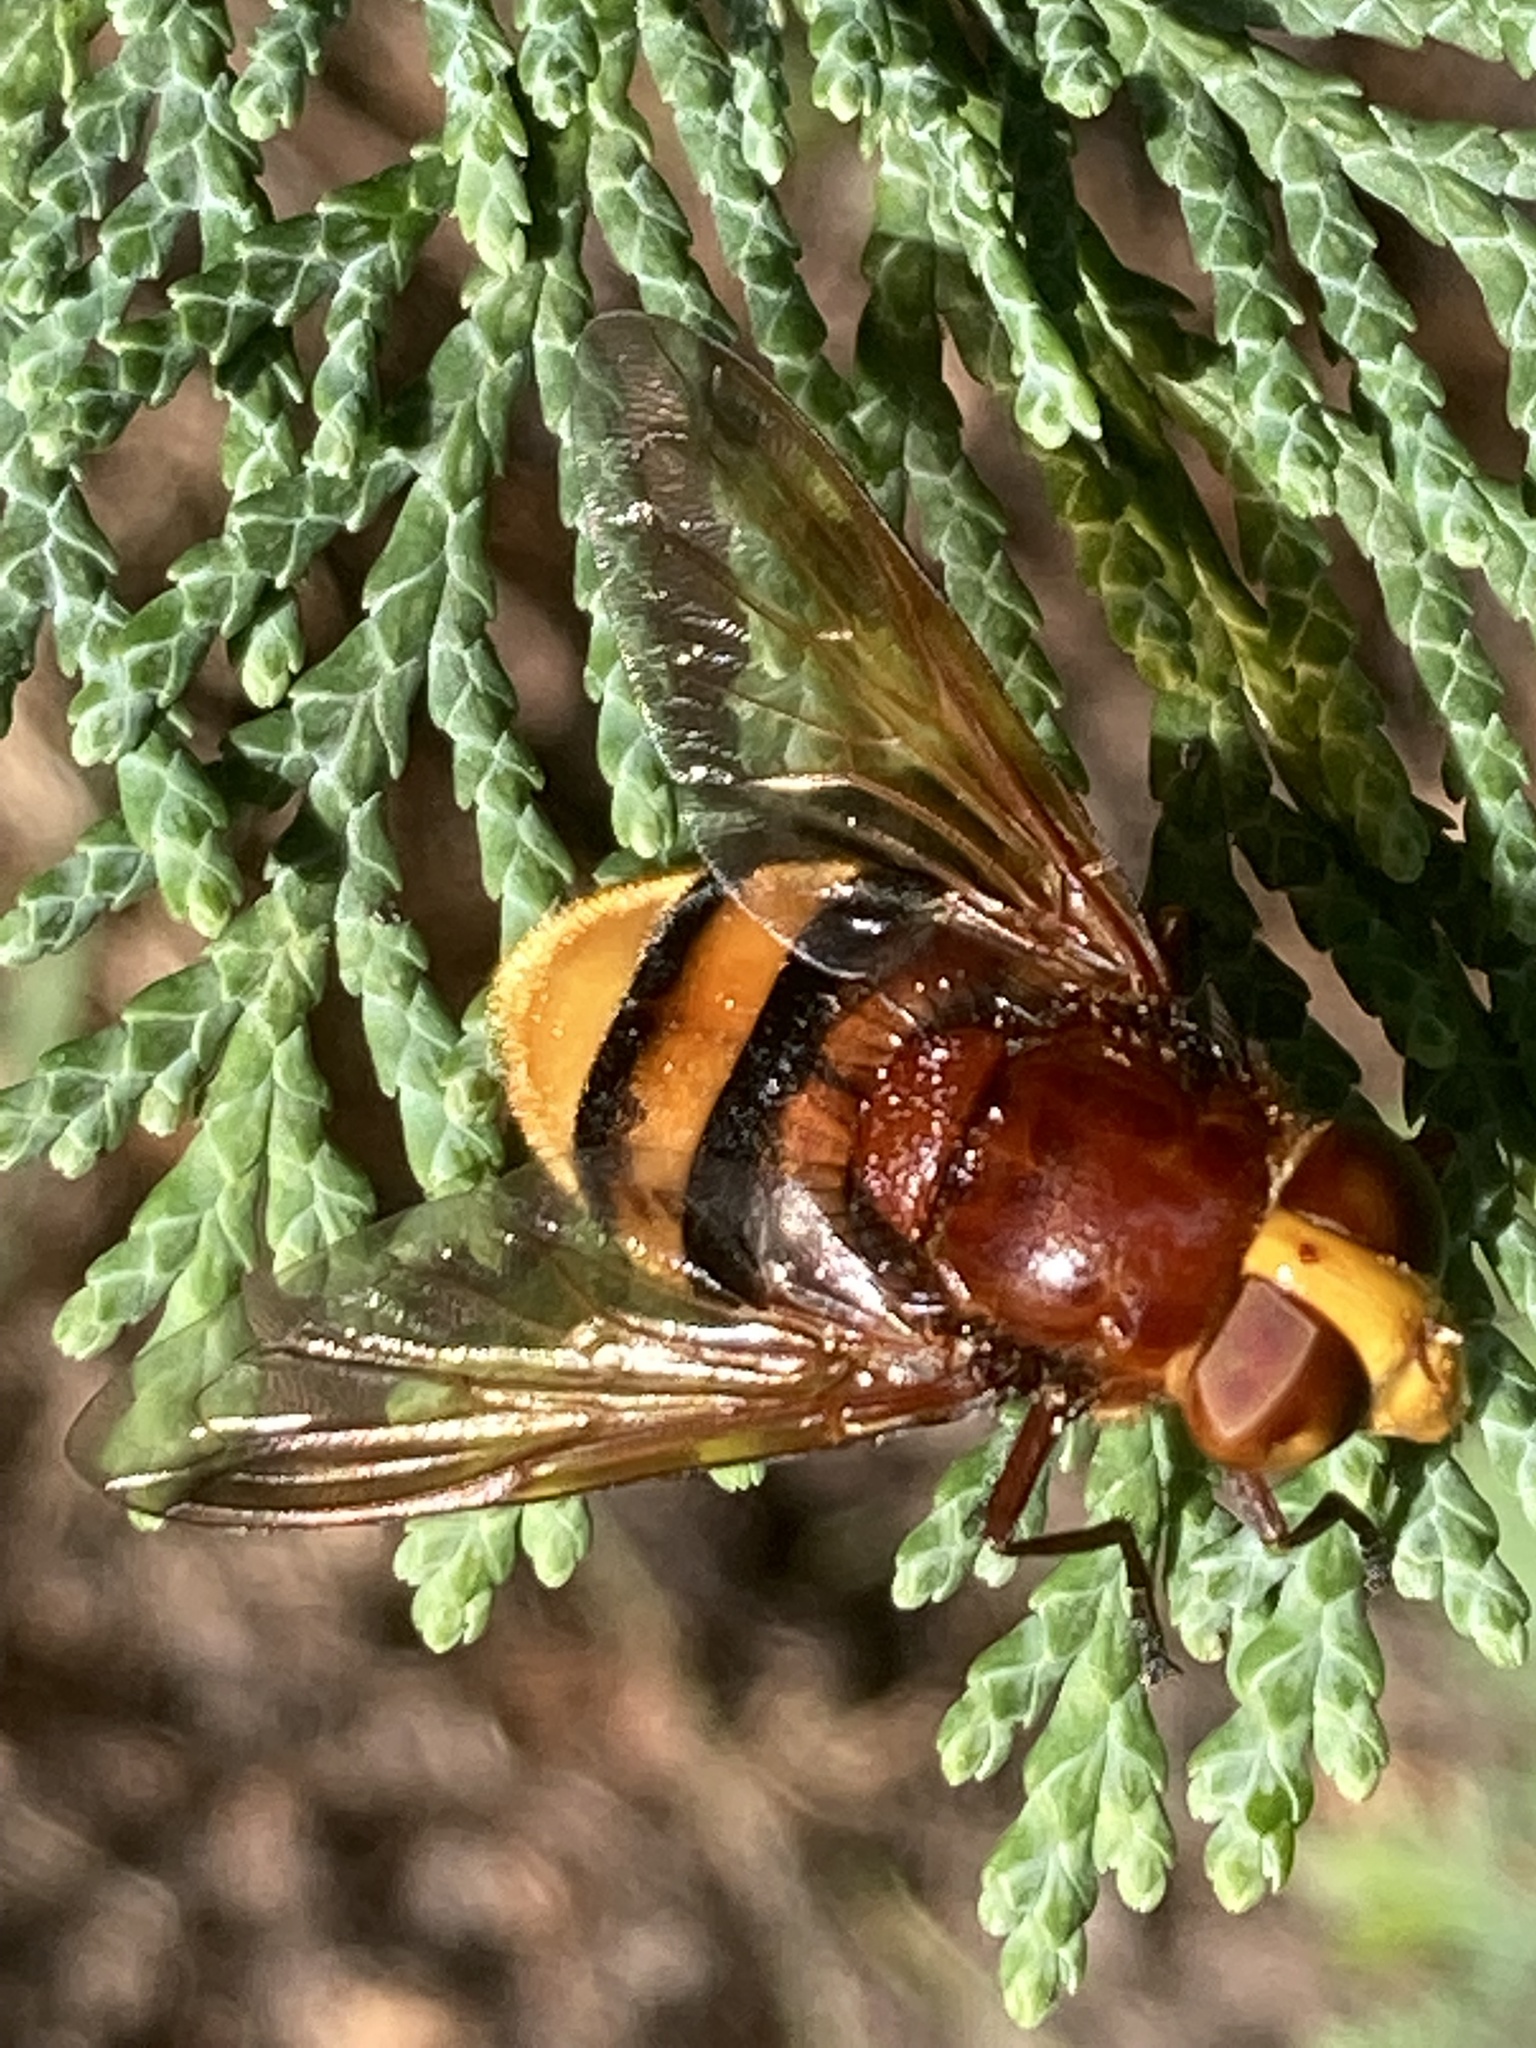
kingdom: Animalia
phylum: Arthropoda
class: Insecta
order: Diptera
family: Syrphidae
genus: Volucella
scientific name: Volucella zonaria
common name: Hornet hoverfly
